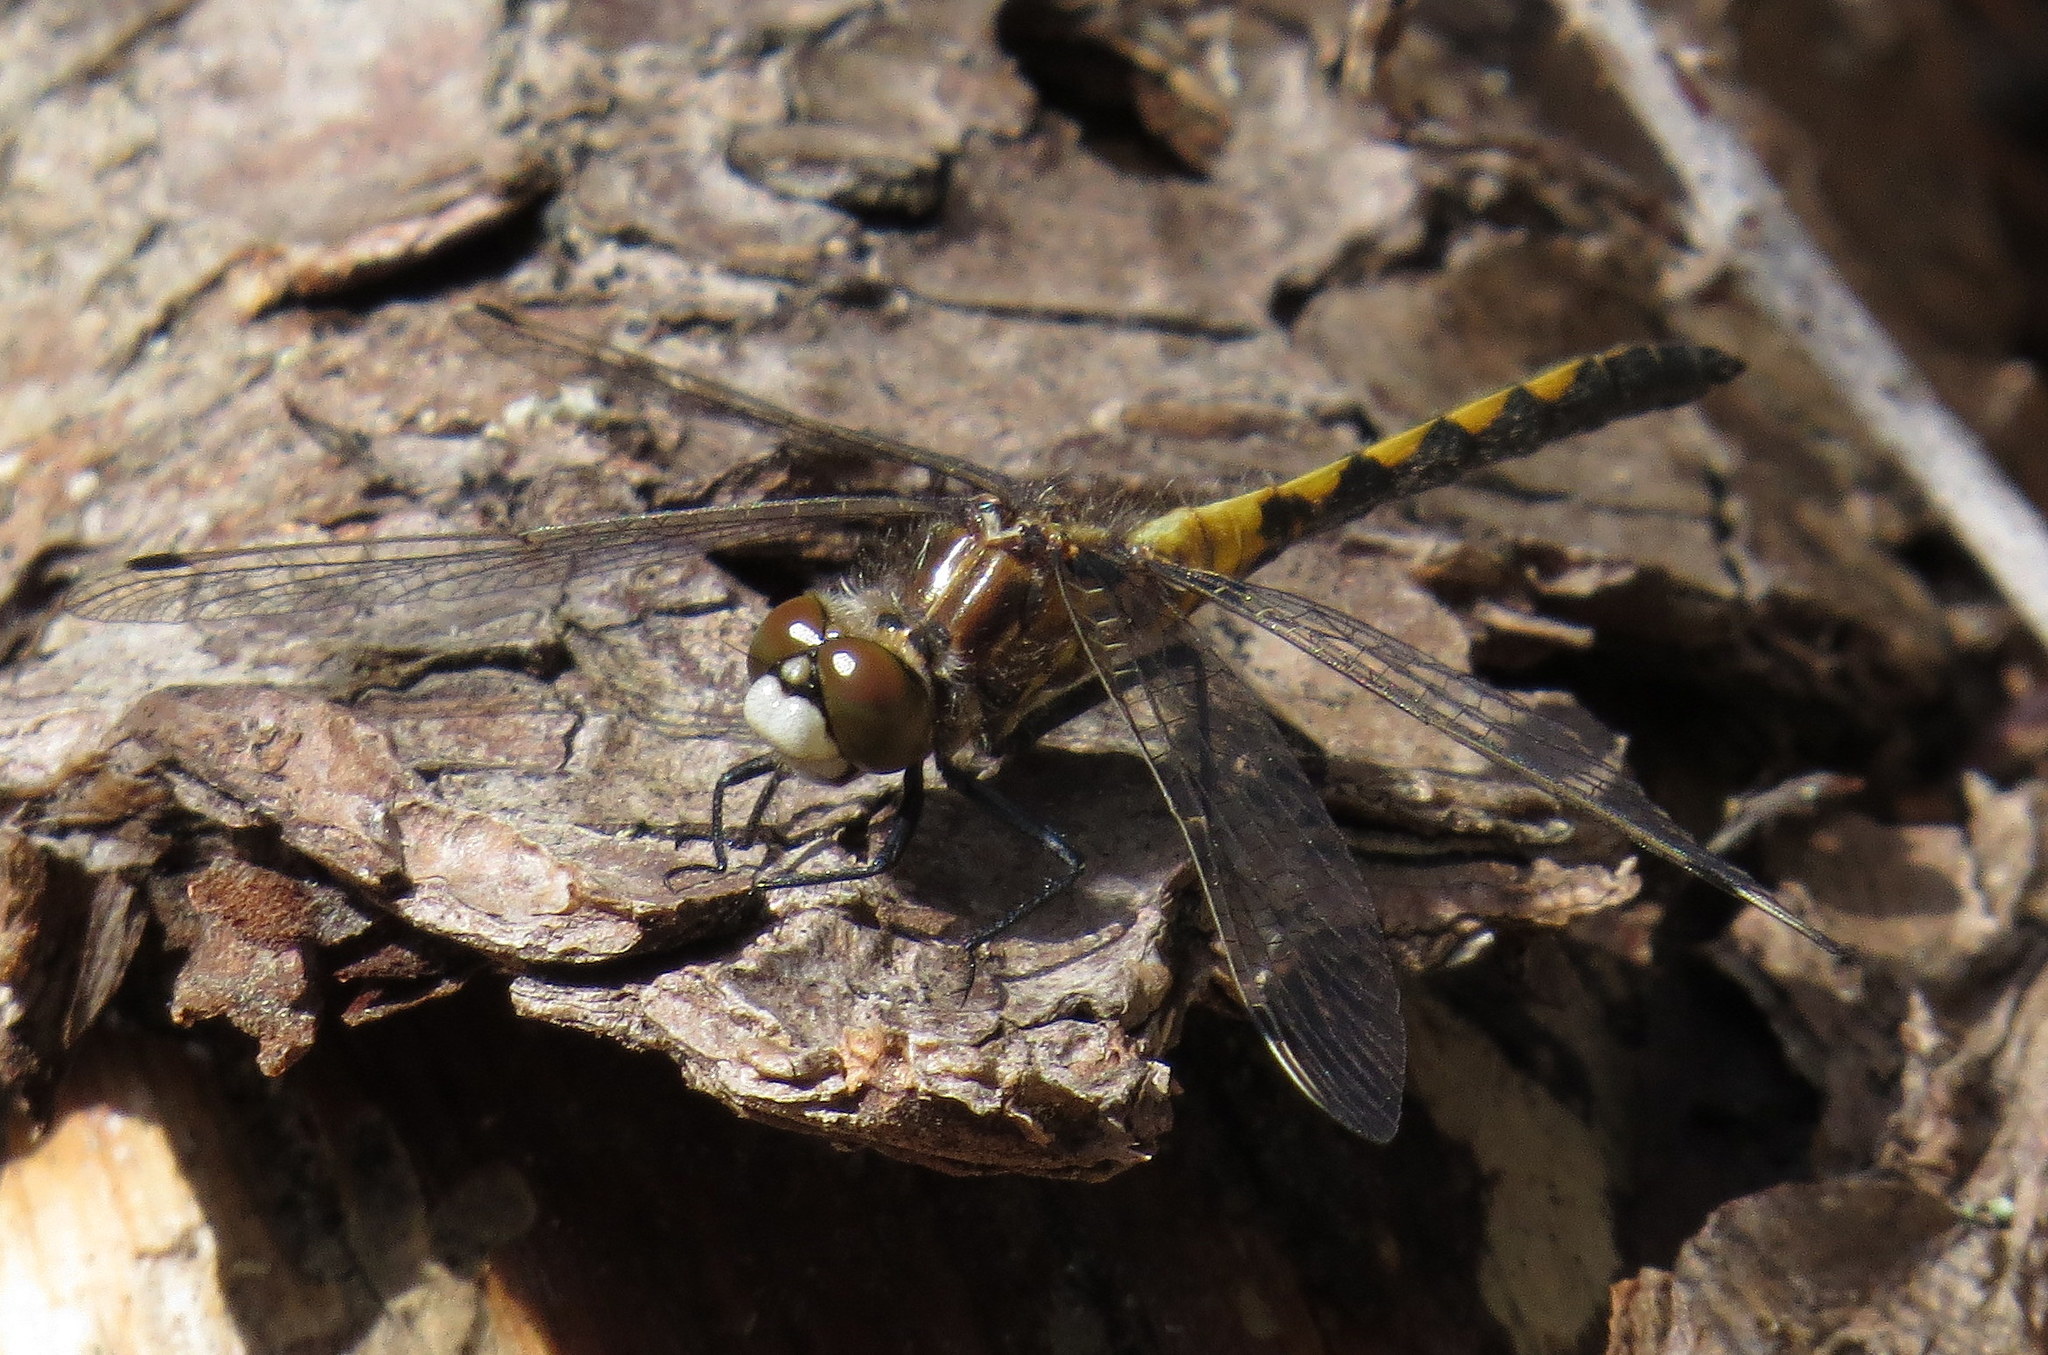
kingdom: Animalia
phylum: Arthropoda
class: Insecta
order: Odonata
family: Libellulidae
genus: Leucorrhinia
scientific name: Leucorrhinia hudsonica
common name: Hudsonian whiteface
